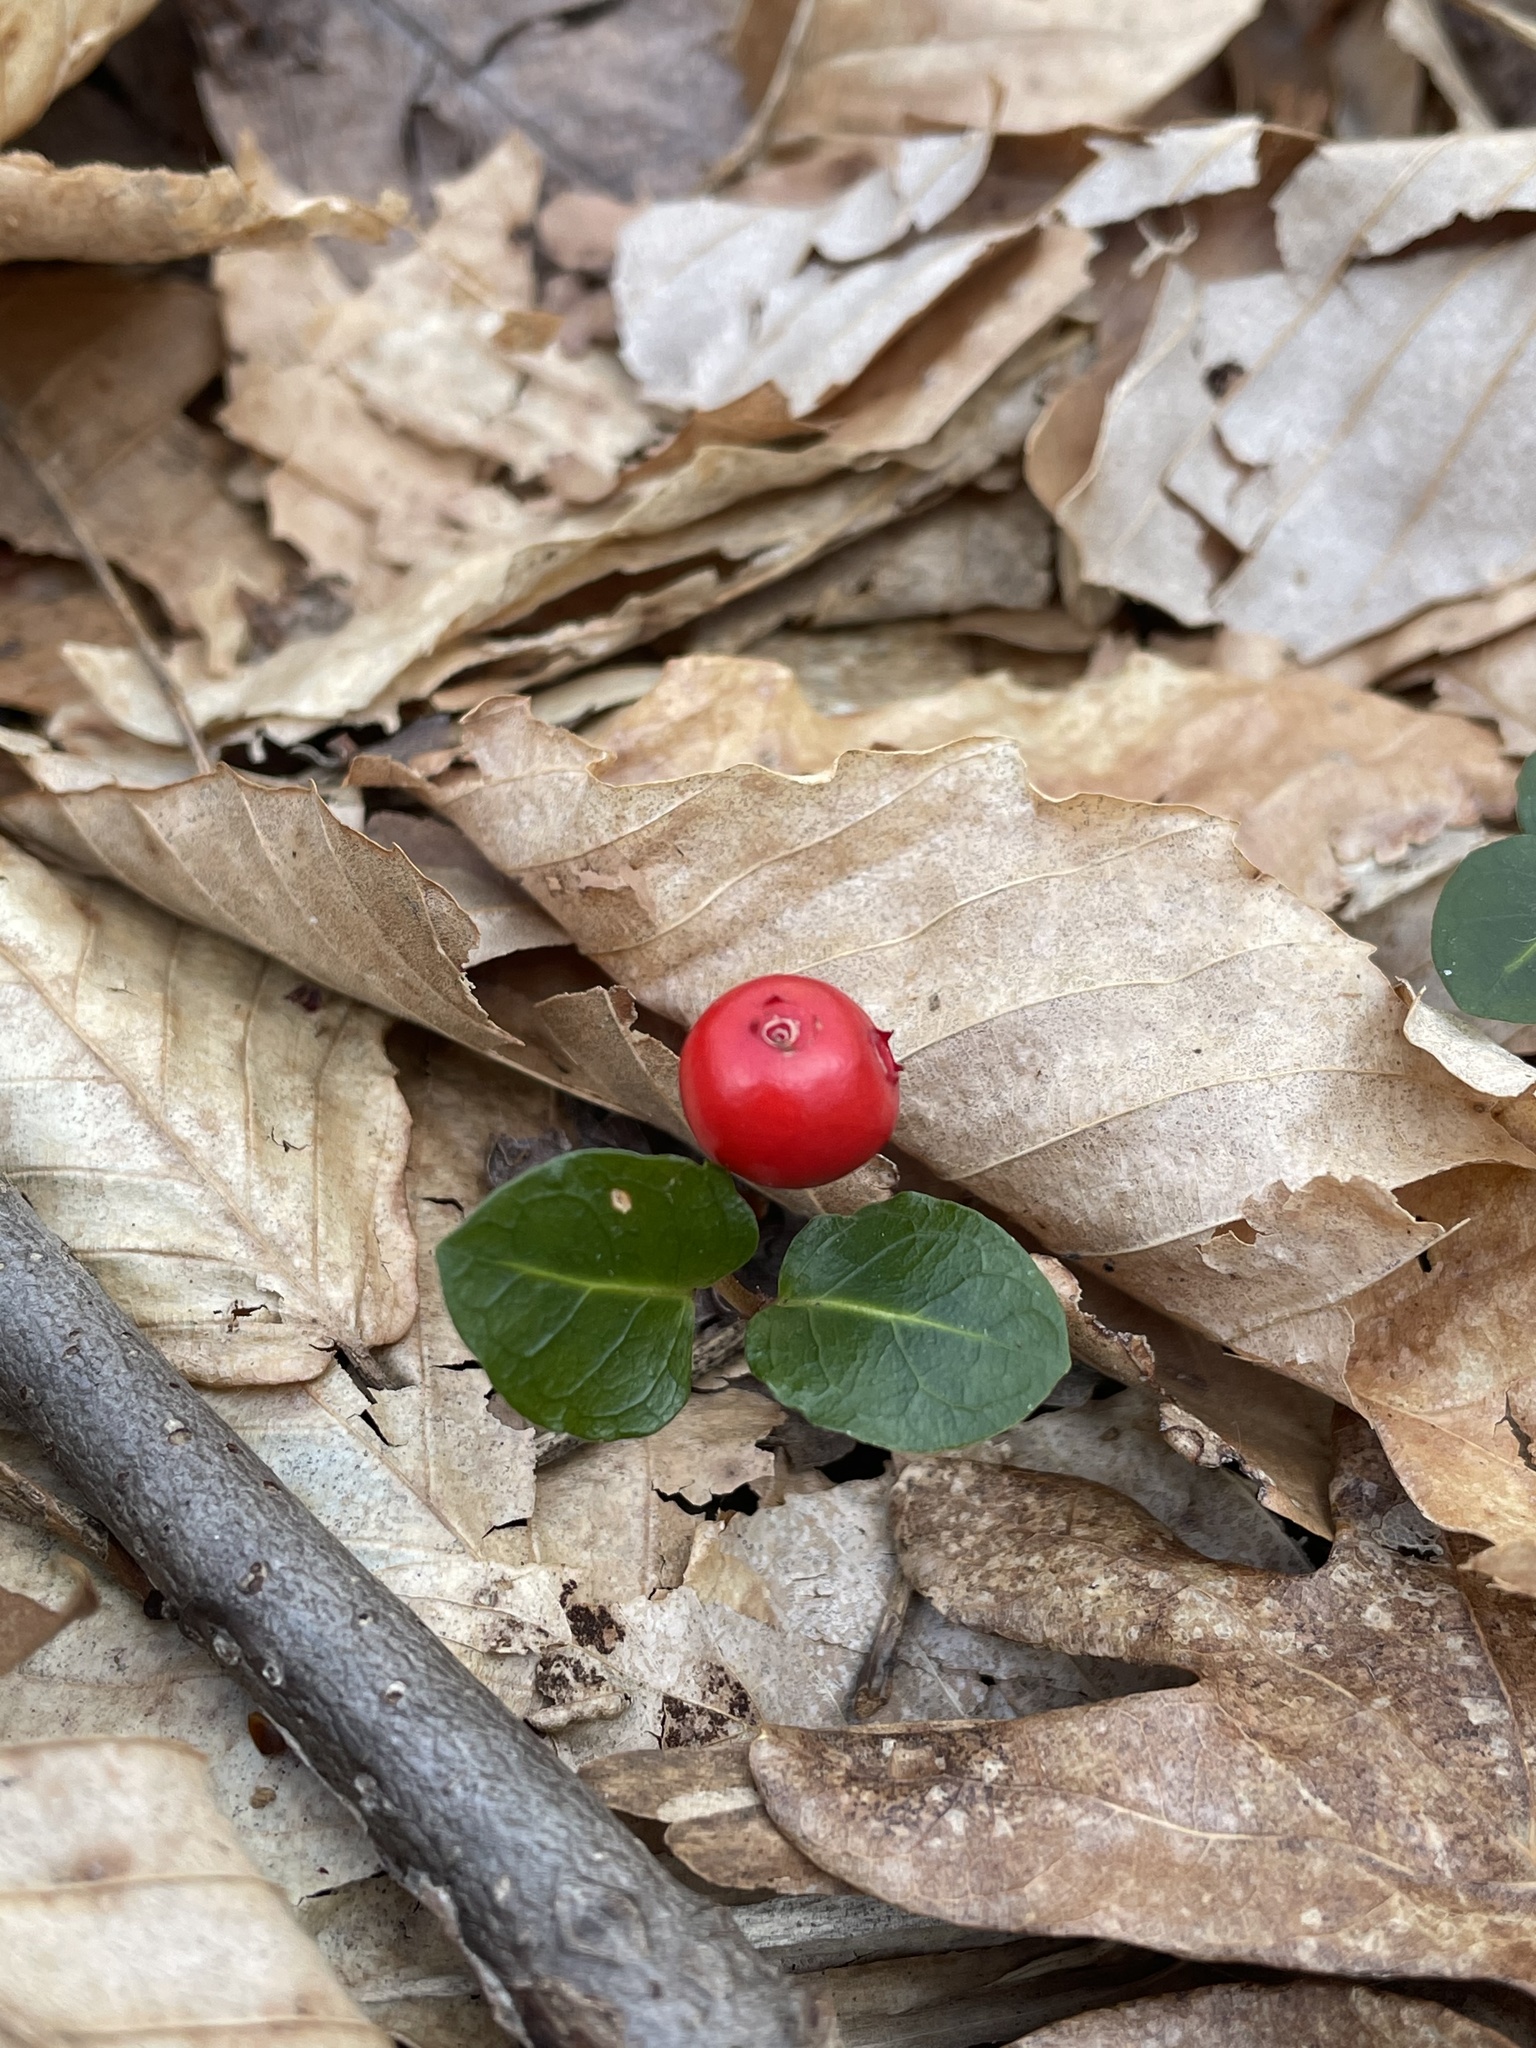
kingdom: Plantae
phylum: Tracheophyta
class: Magnoliopsida
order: Gentianales
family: Rubiaceae
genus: Mitchella
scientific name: Mitchella repens
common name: Partridge-berry
